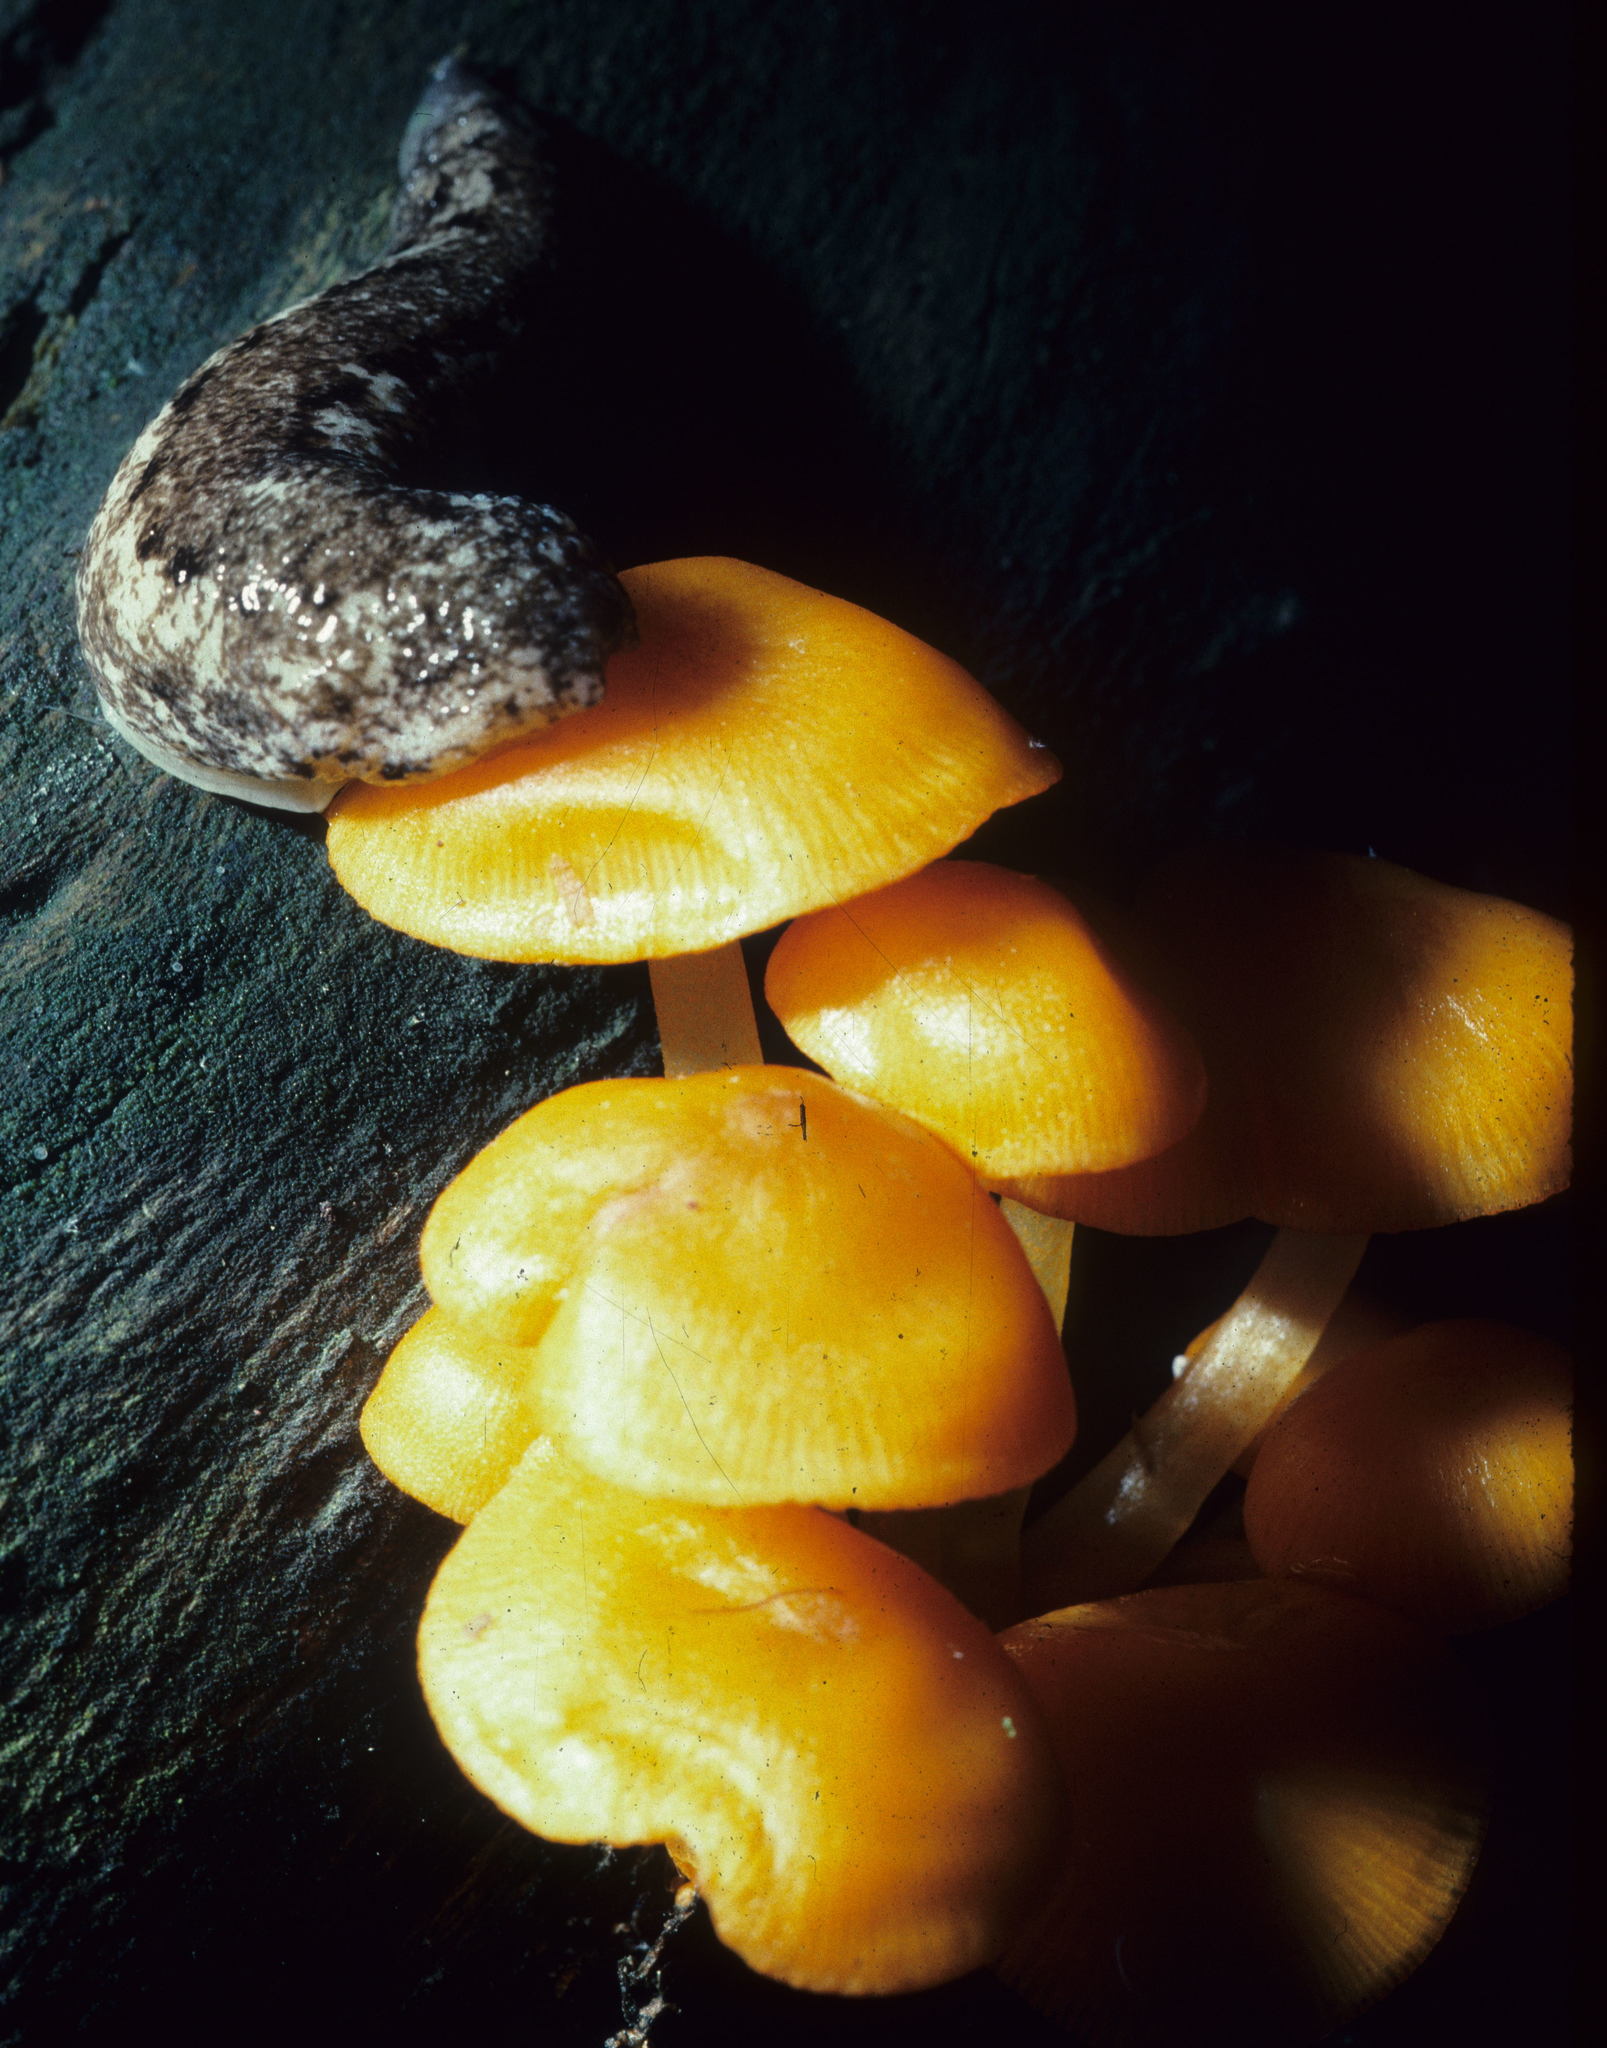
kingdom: Fungi
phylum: Basidiomycota
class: Agaricomycetes
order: Agaricales
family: Mycenaceae
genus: Mycena
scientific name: Mycena leaiana
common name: Orange mycena
